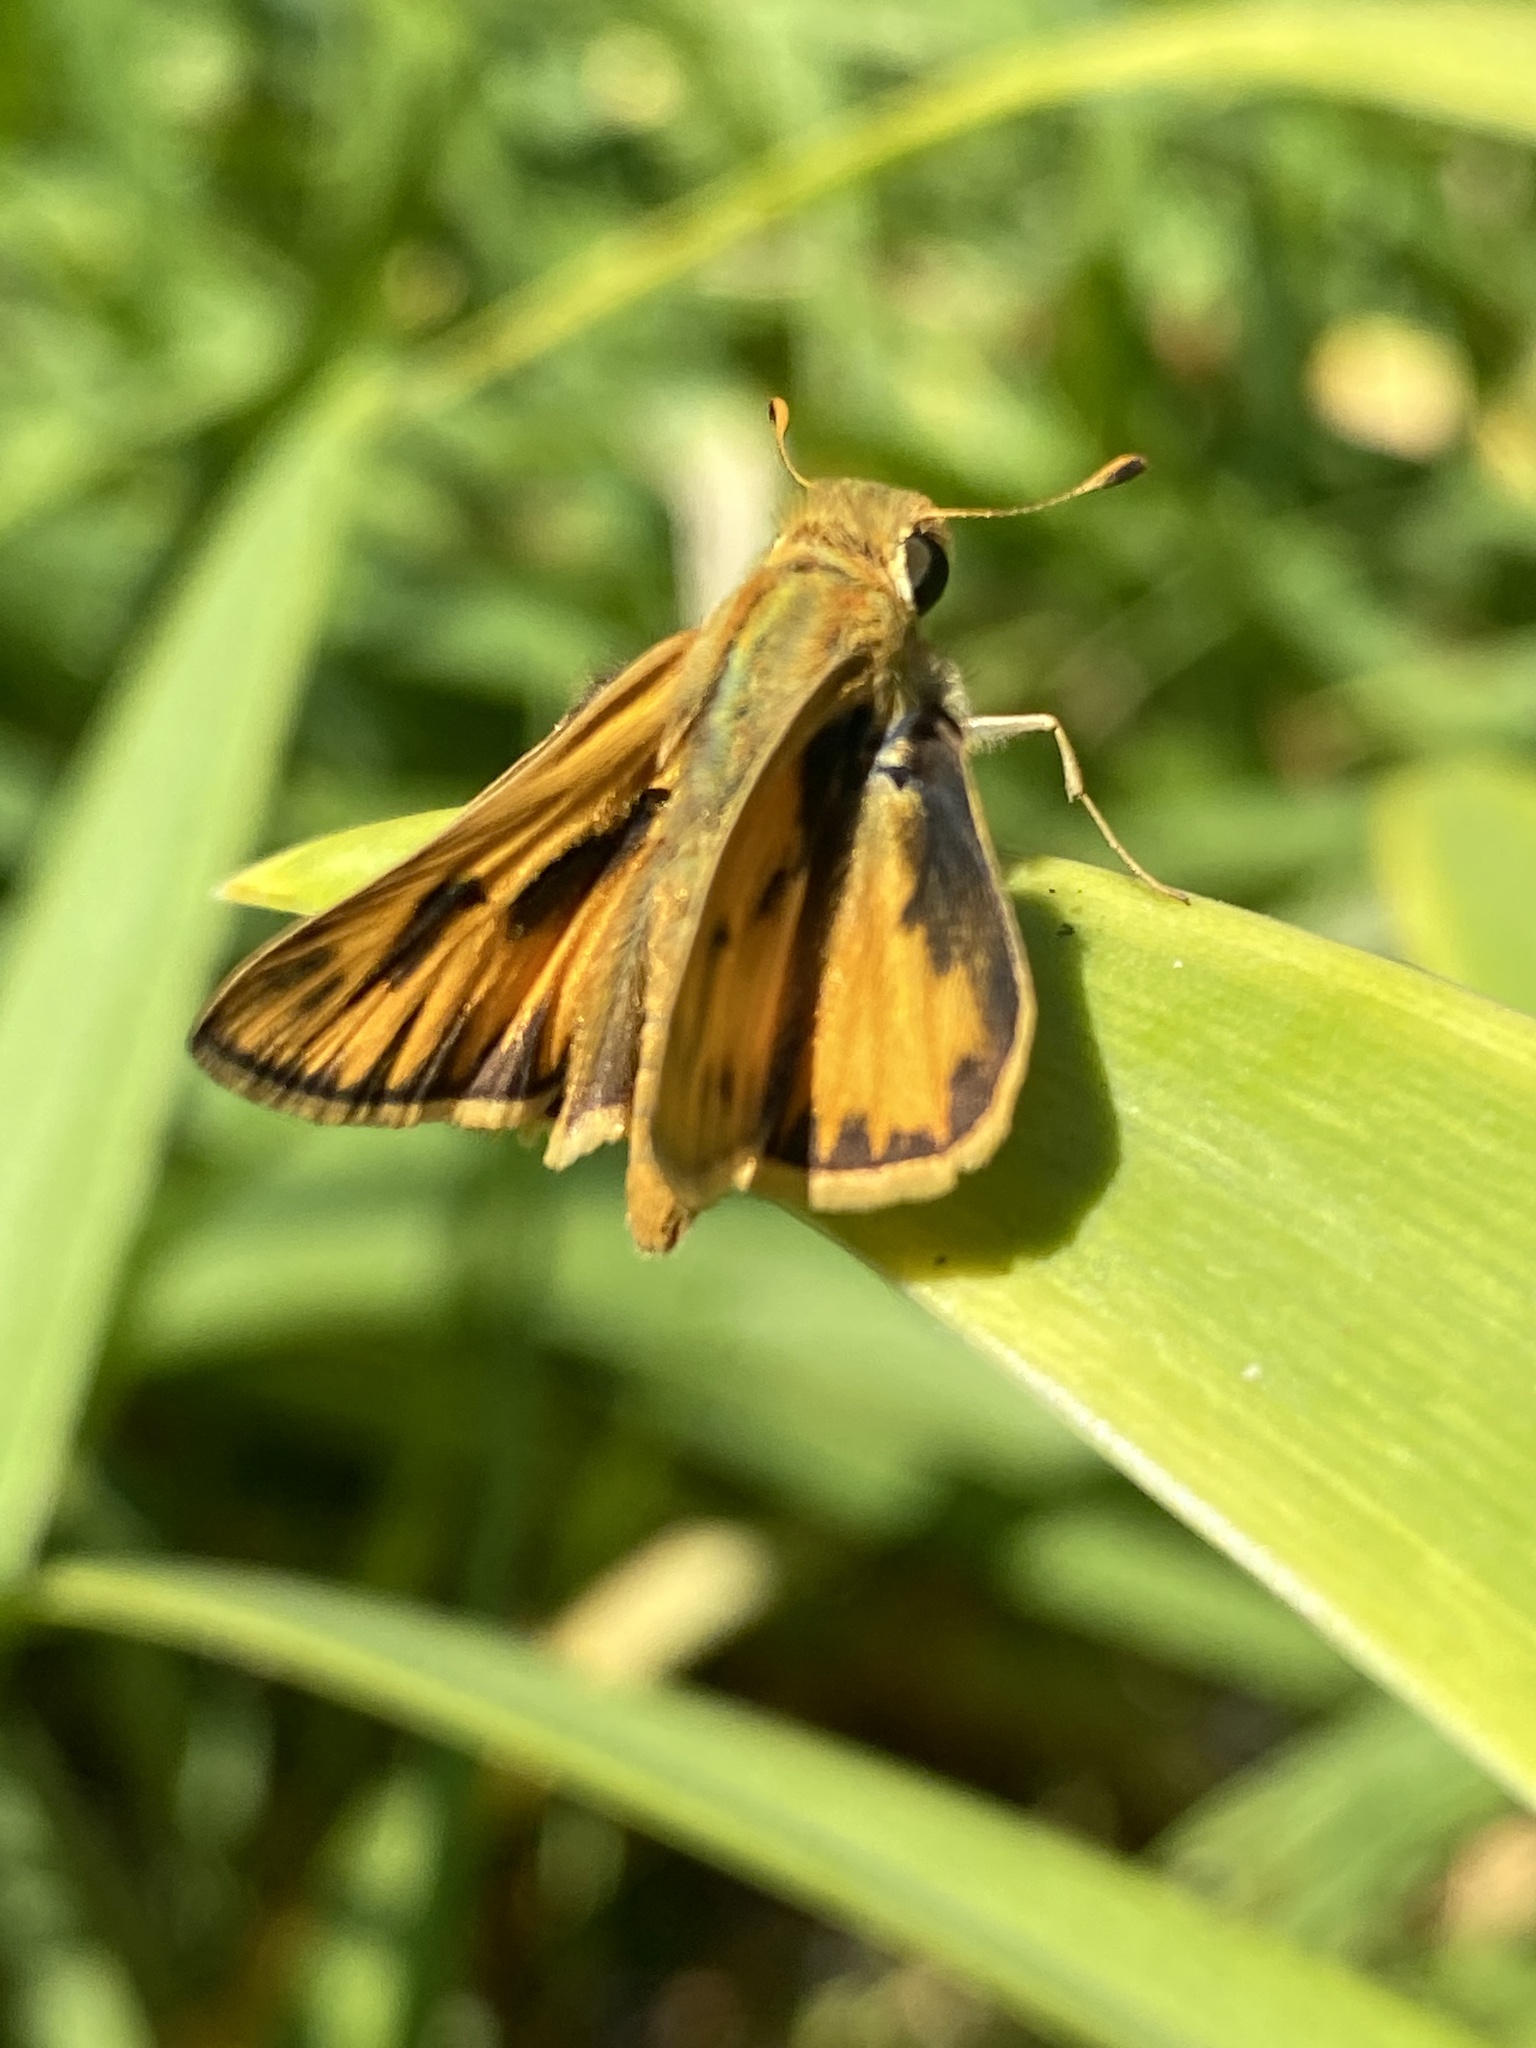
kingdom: Animalia
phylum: Arthropoda
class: Insecta
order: Lepidoptera
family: Hesperiidae
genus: Hylephila
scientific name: Hylephila phyleus
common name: Fiery skipper
